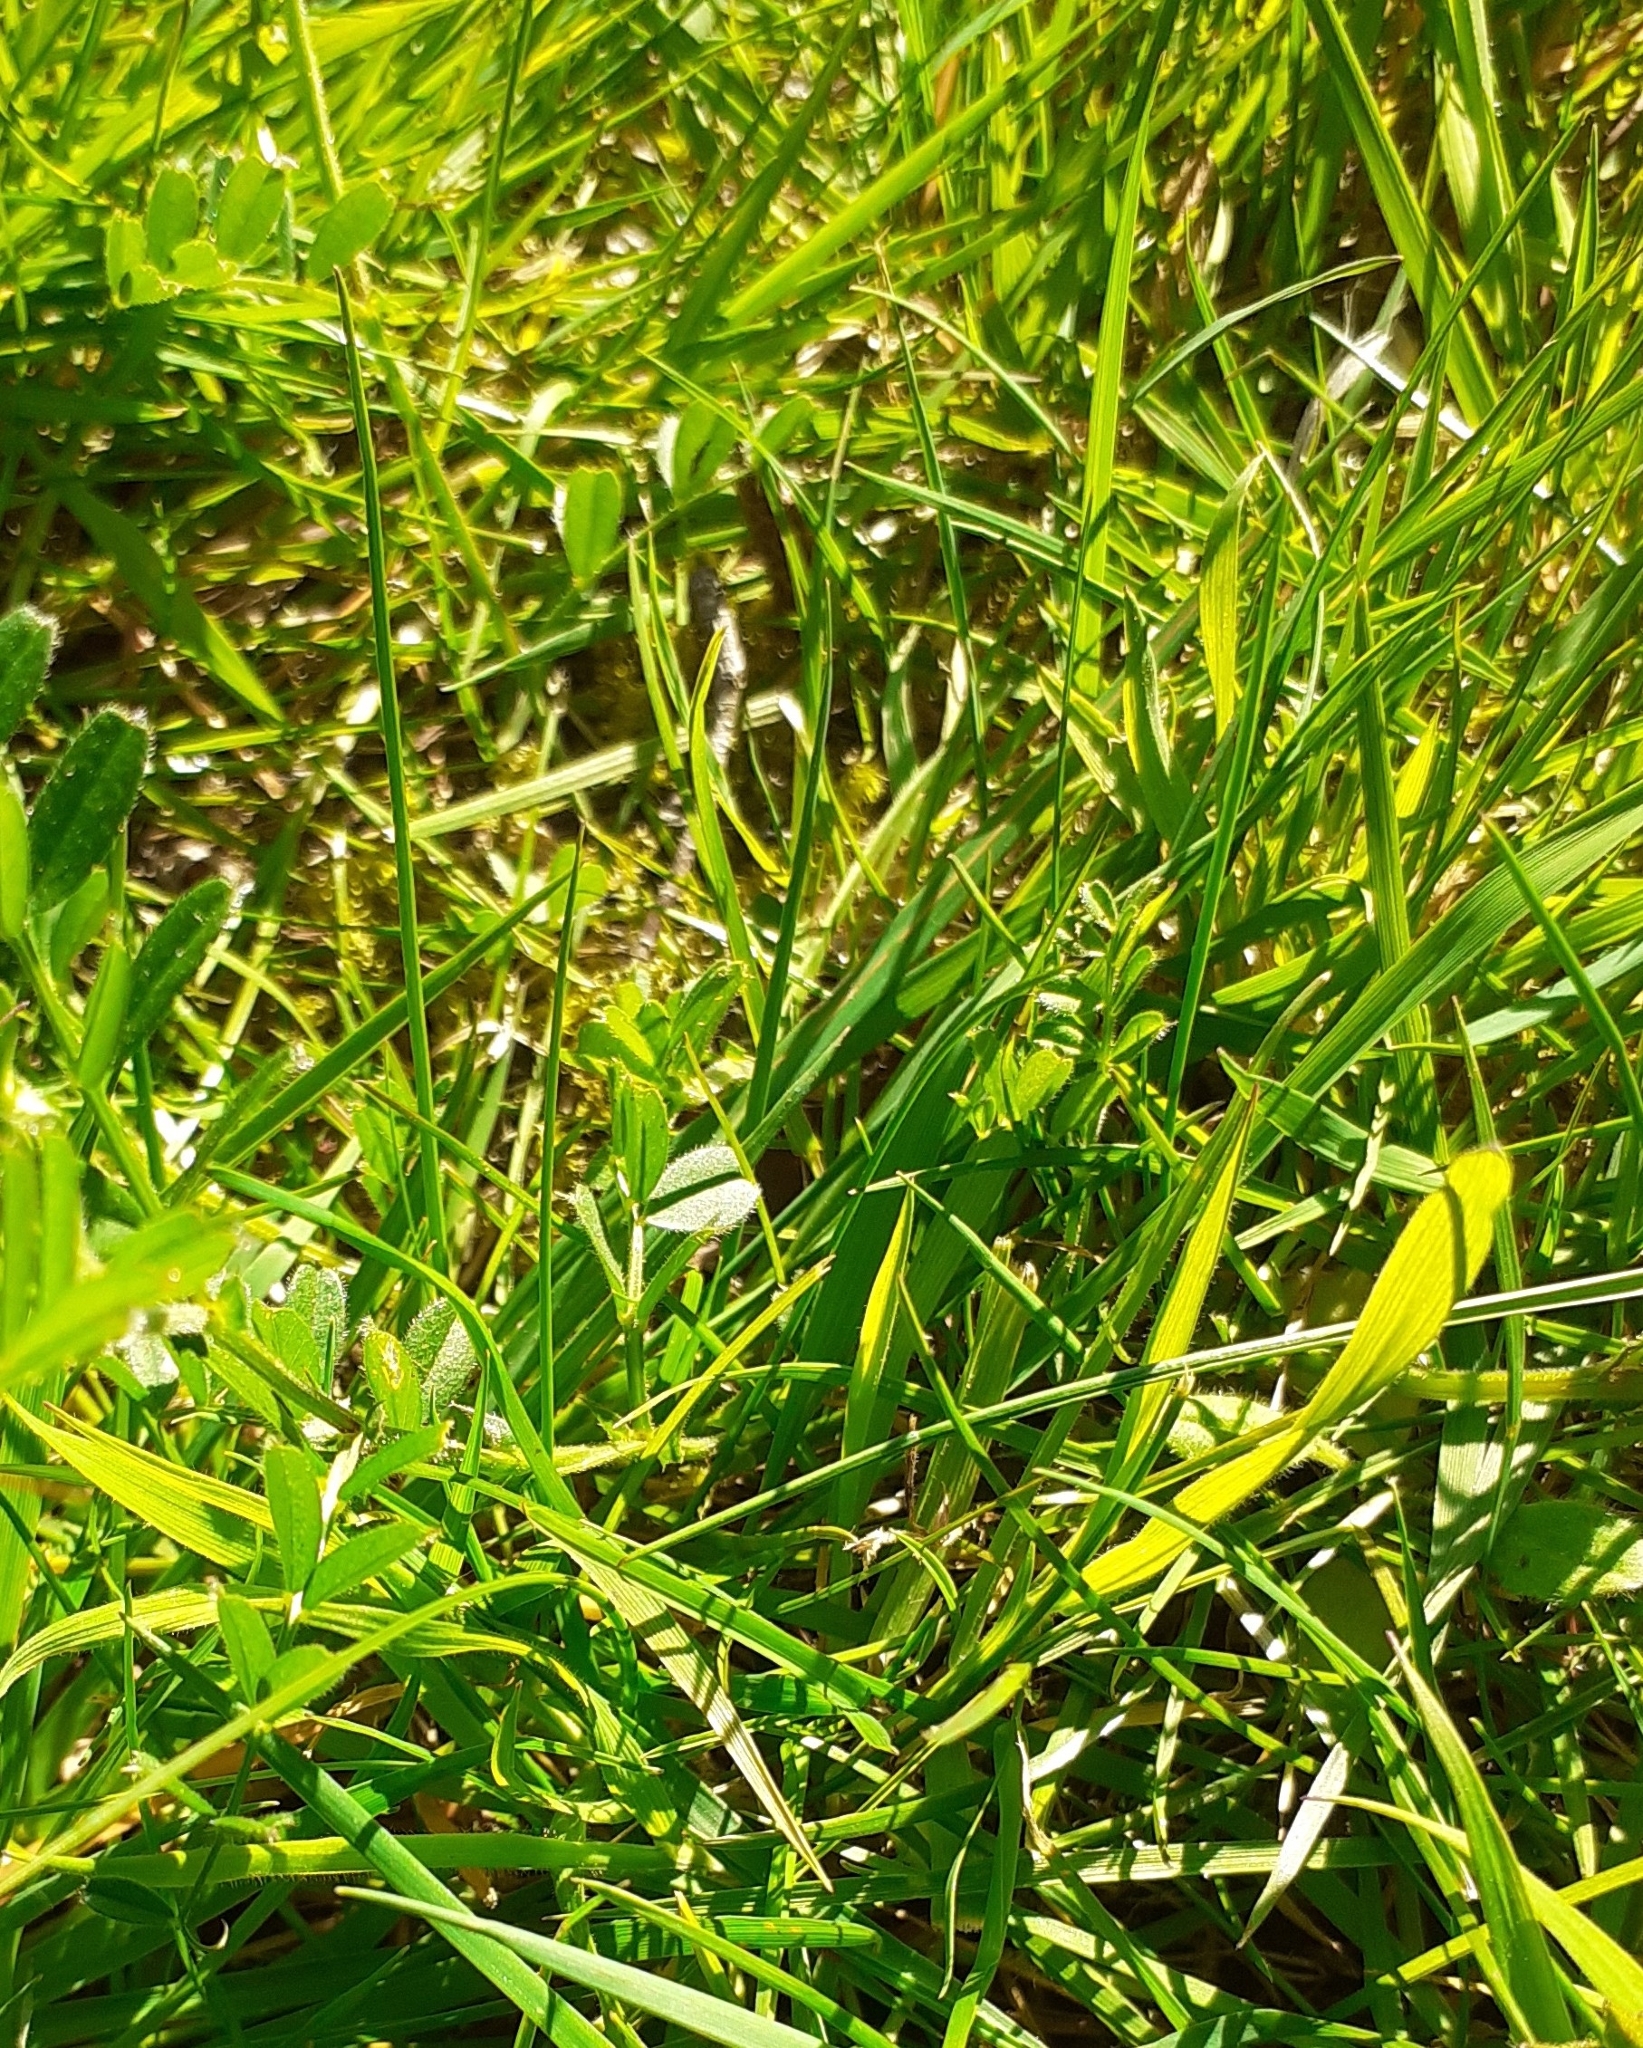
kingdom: Plantae
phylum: Tracheophyta
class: Magnoliopsida
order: Fabales
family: Fabaceae
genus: Vicia
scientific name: Vicia sativa
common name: Garden vetch
